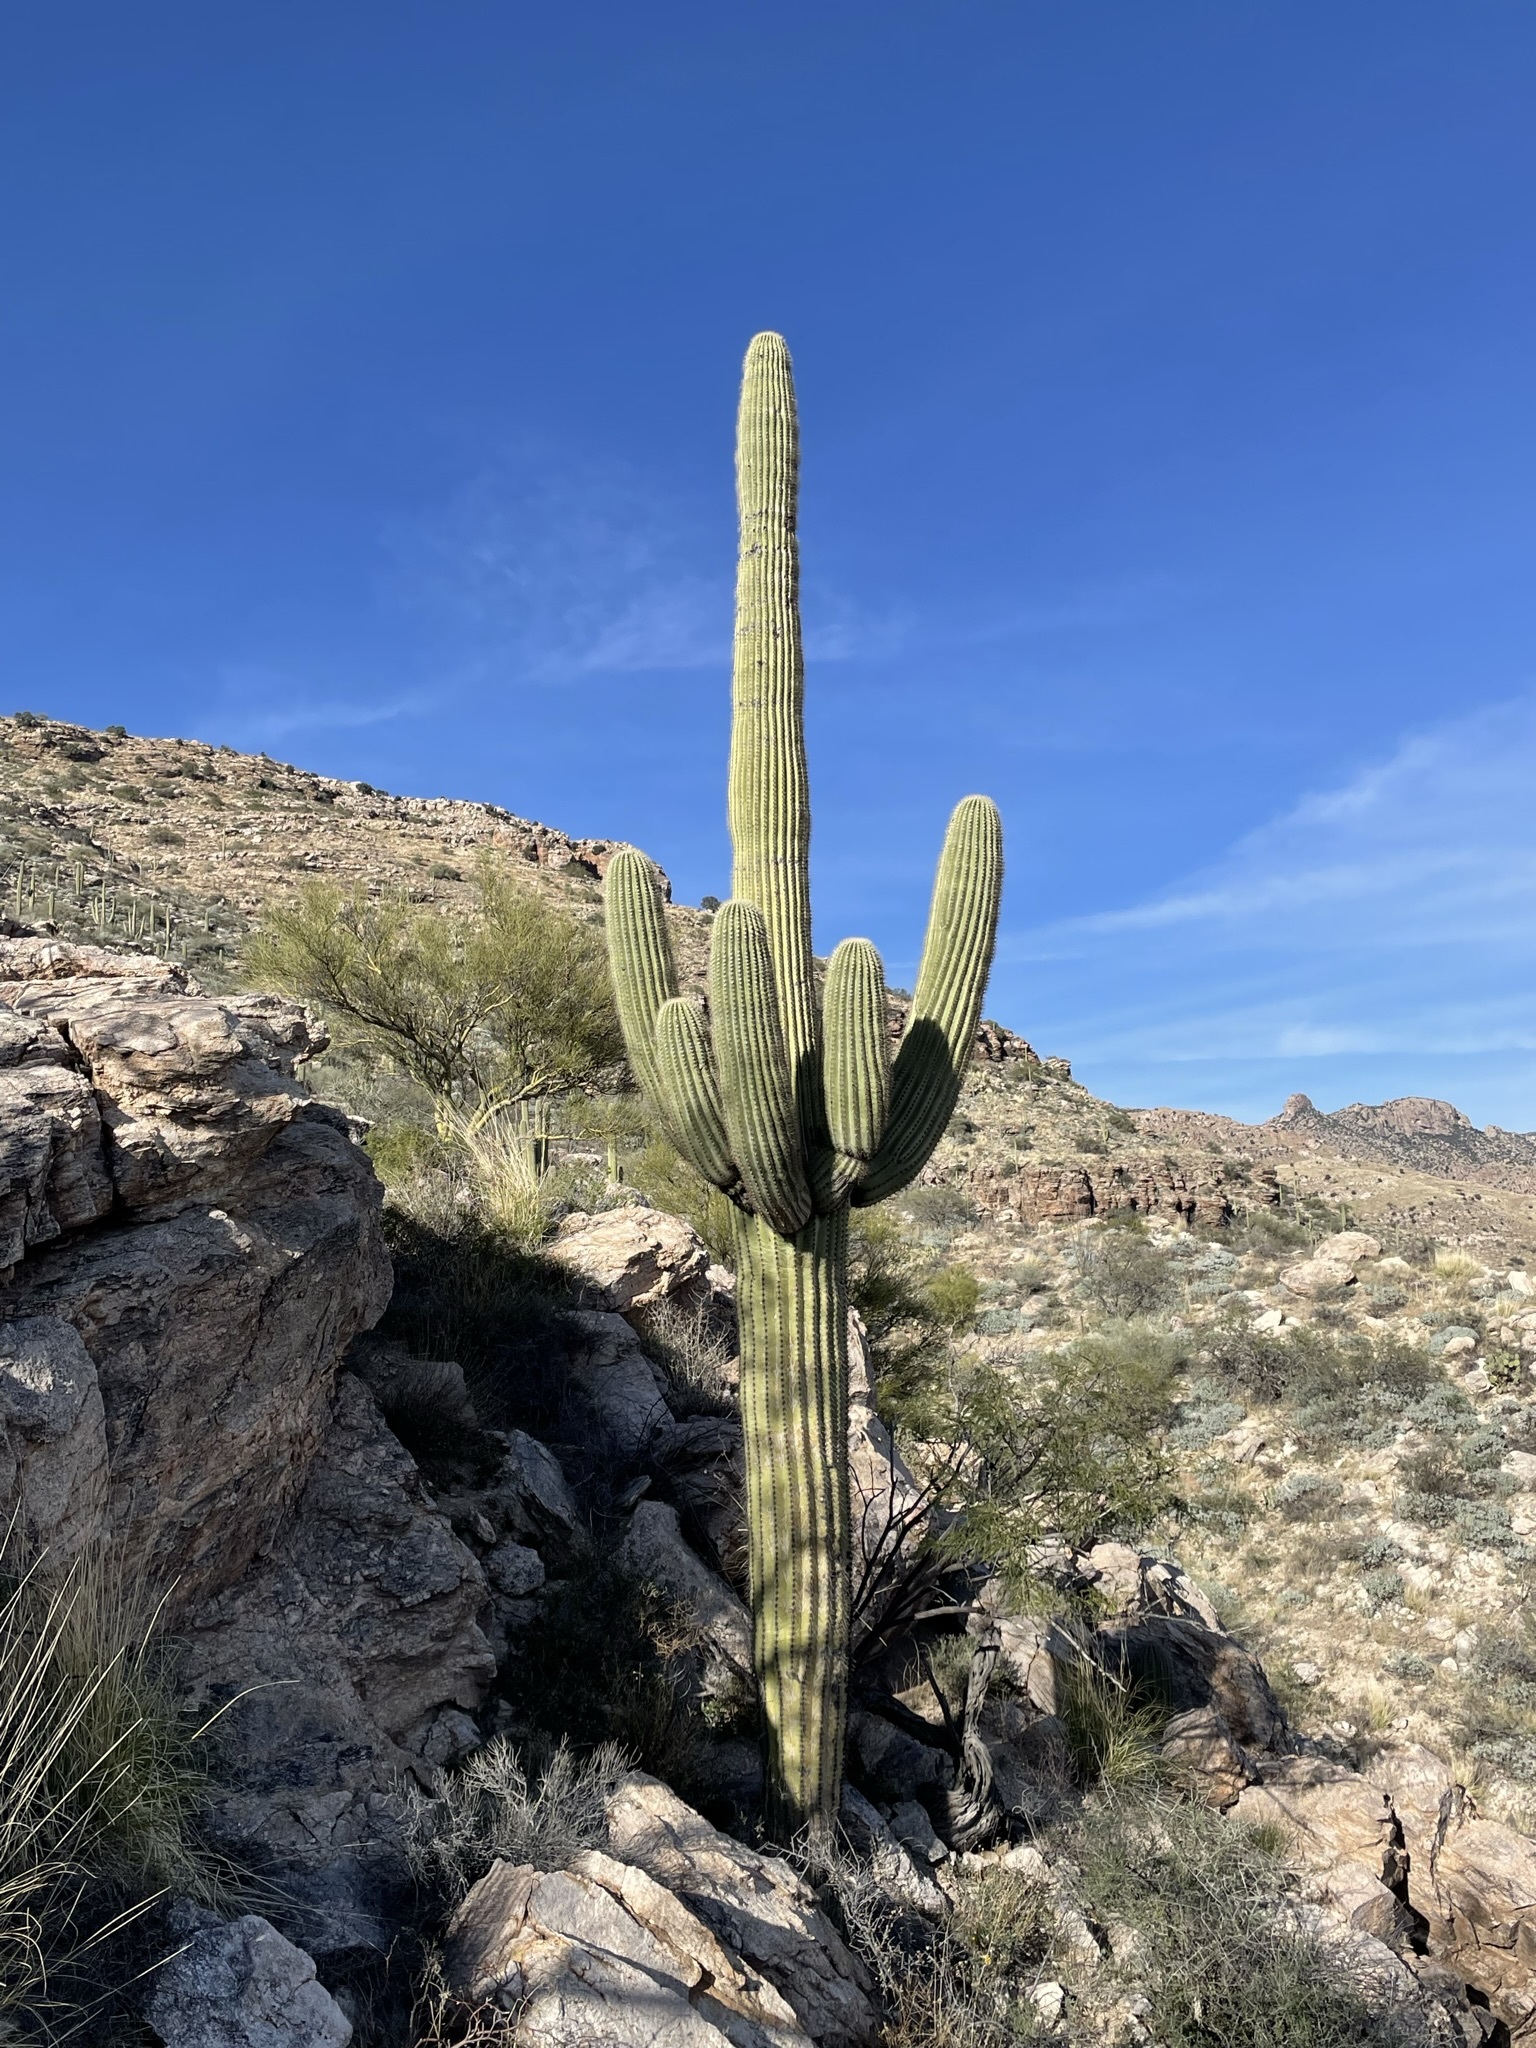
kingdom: Plantae
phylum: Tracheophyta
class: Magnoliopsida
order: Caryophyllales
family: Cactaceae
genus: Carnegiea
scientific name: Carnegiea gigantea
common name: Saguaro
